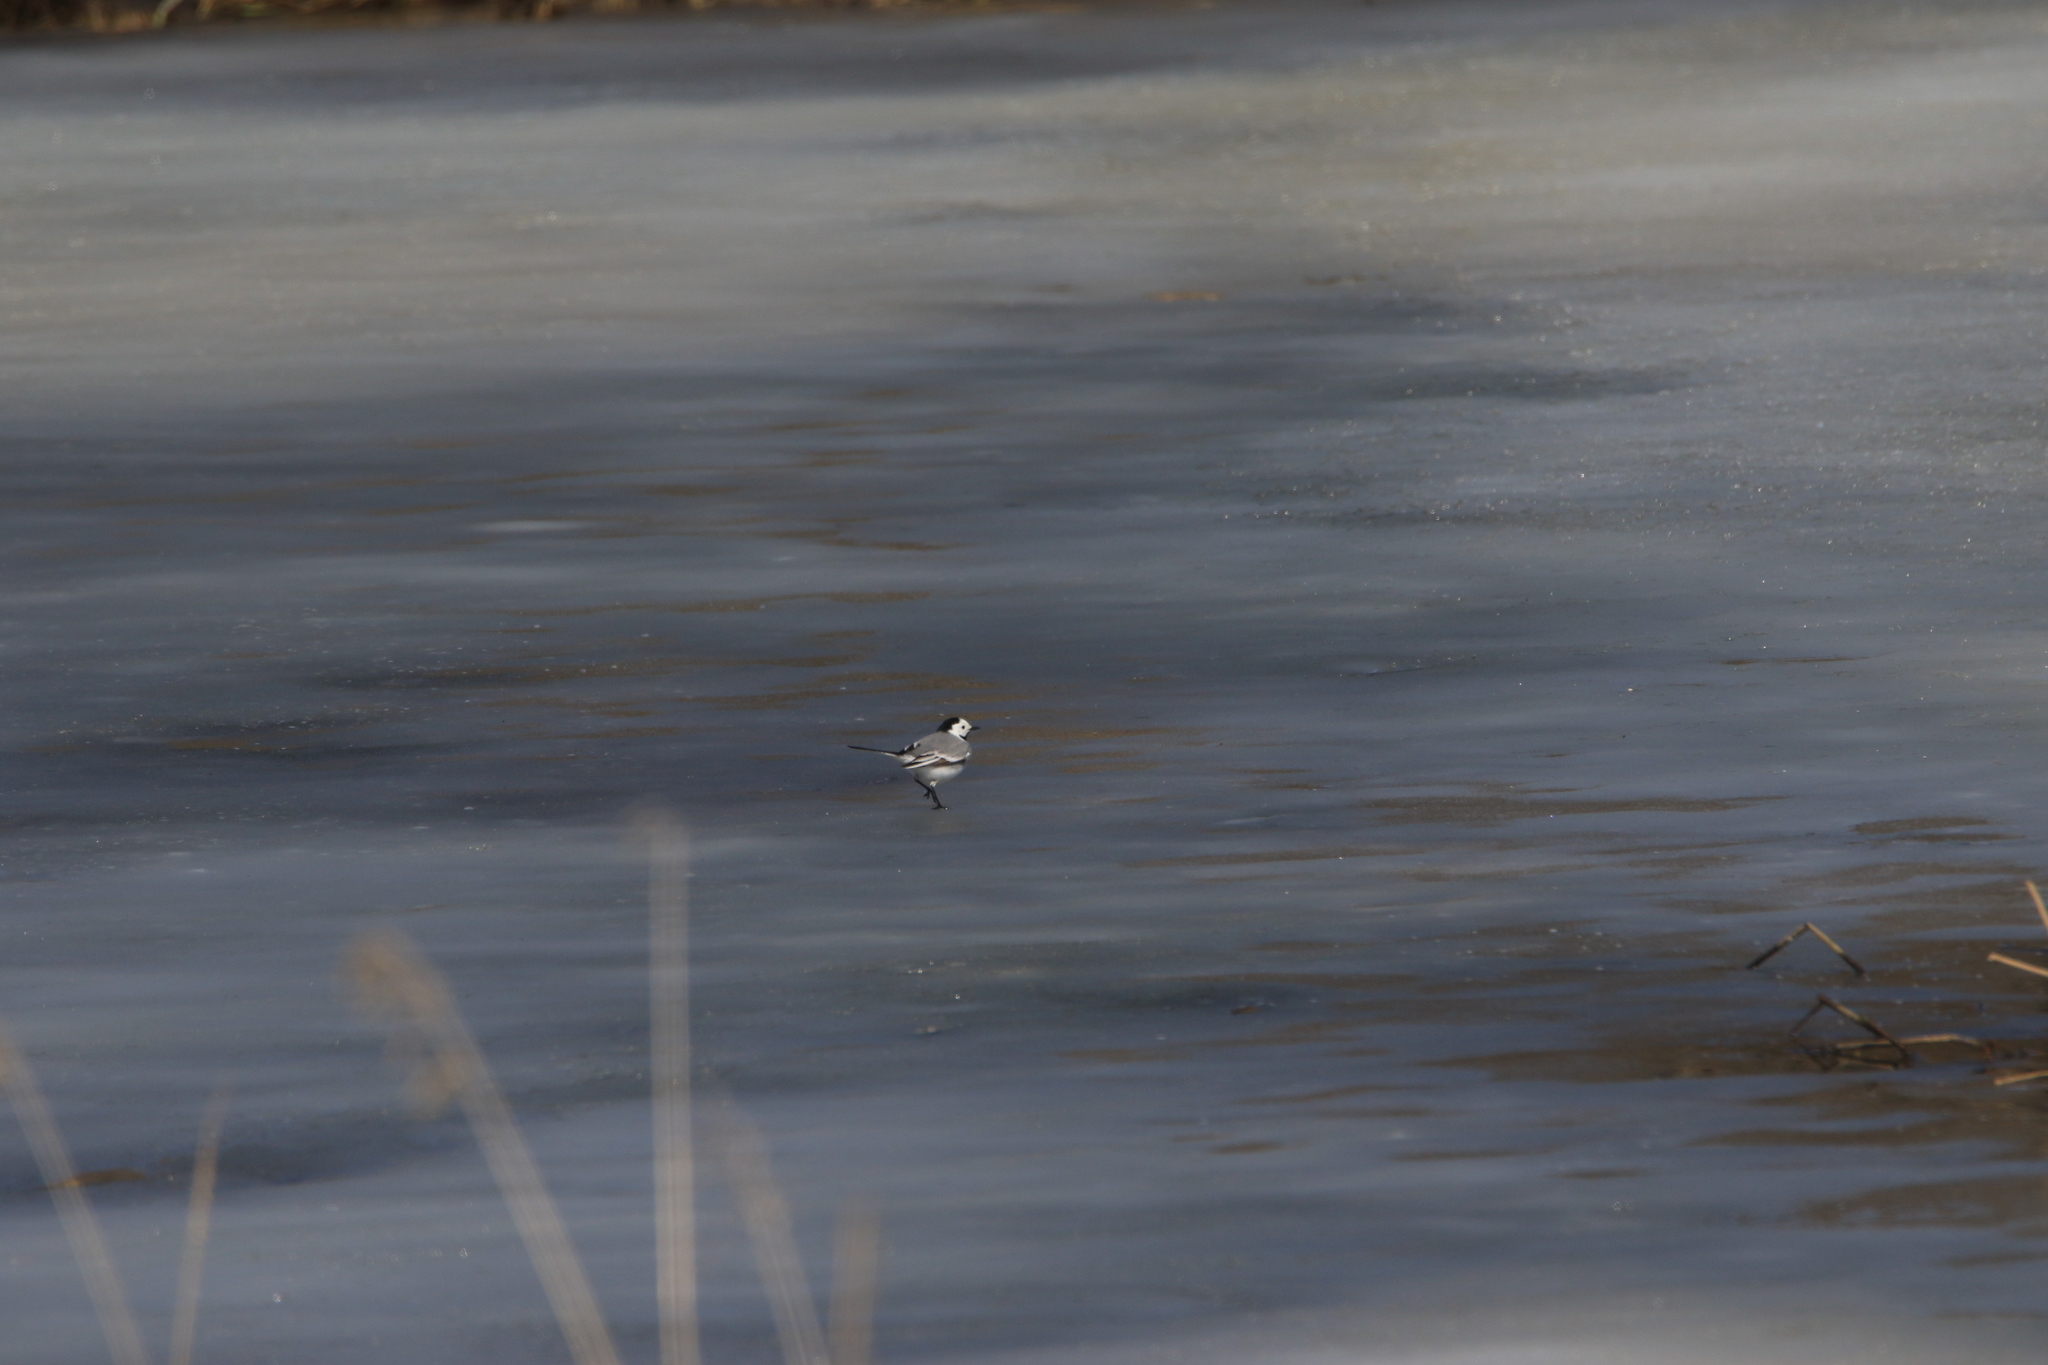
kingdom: Animalia
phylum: Chordata
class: Aves
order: Passeriformes
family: Motacillidae
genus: Motacilla
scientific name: Motacilla alba
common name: White wagtail
